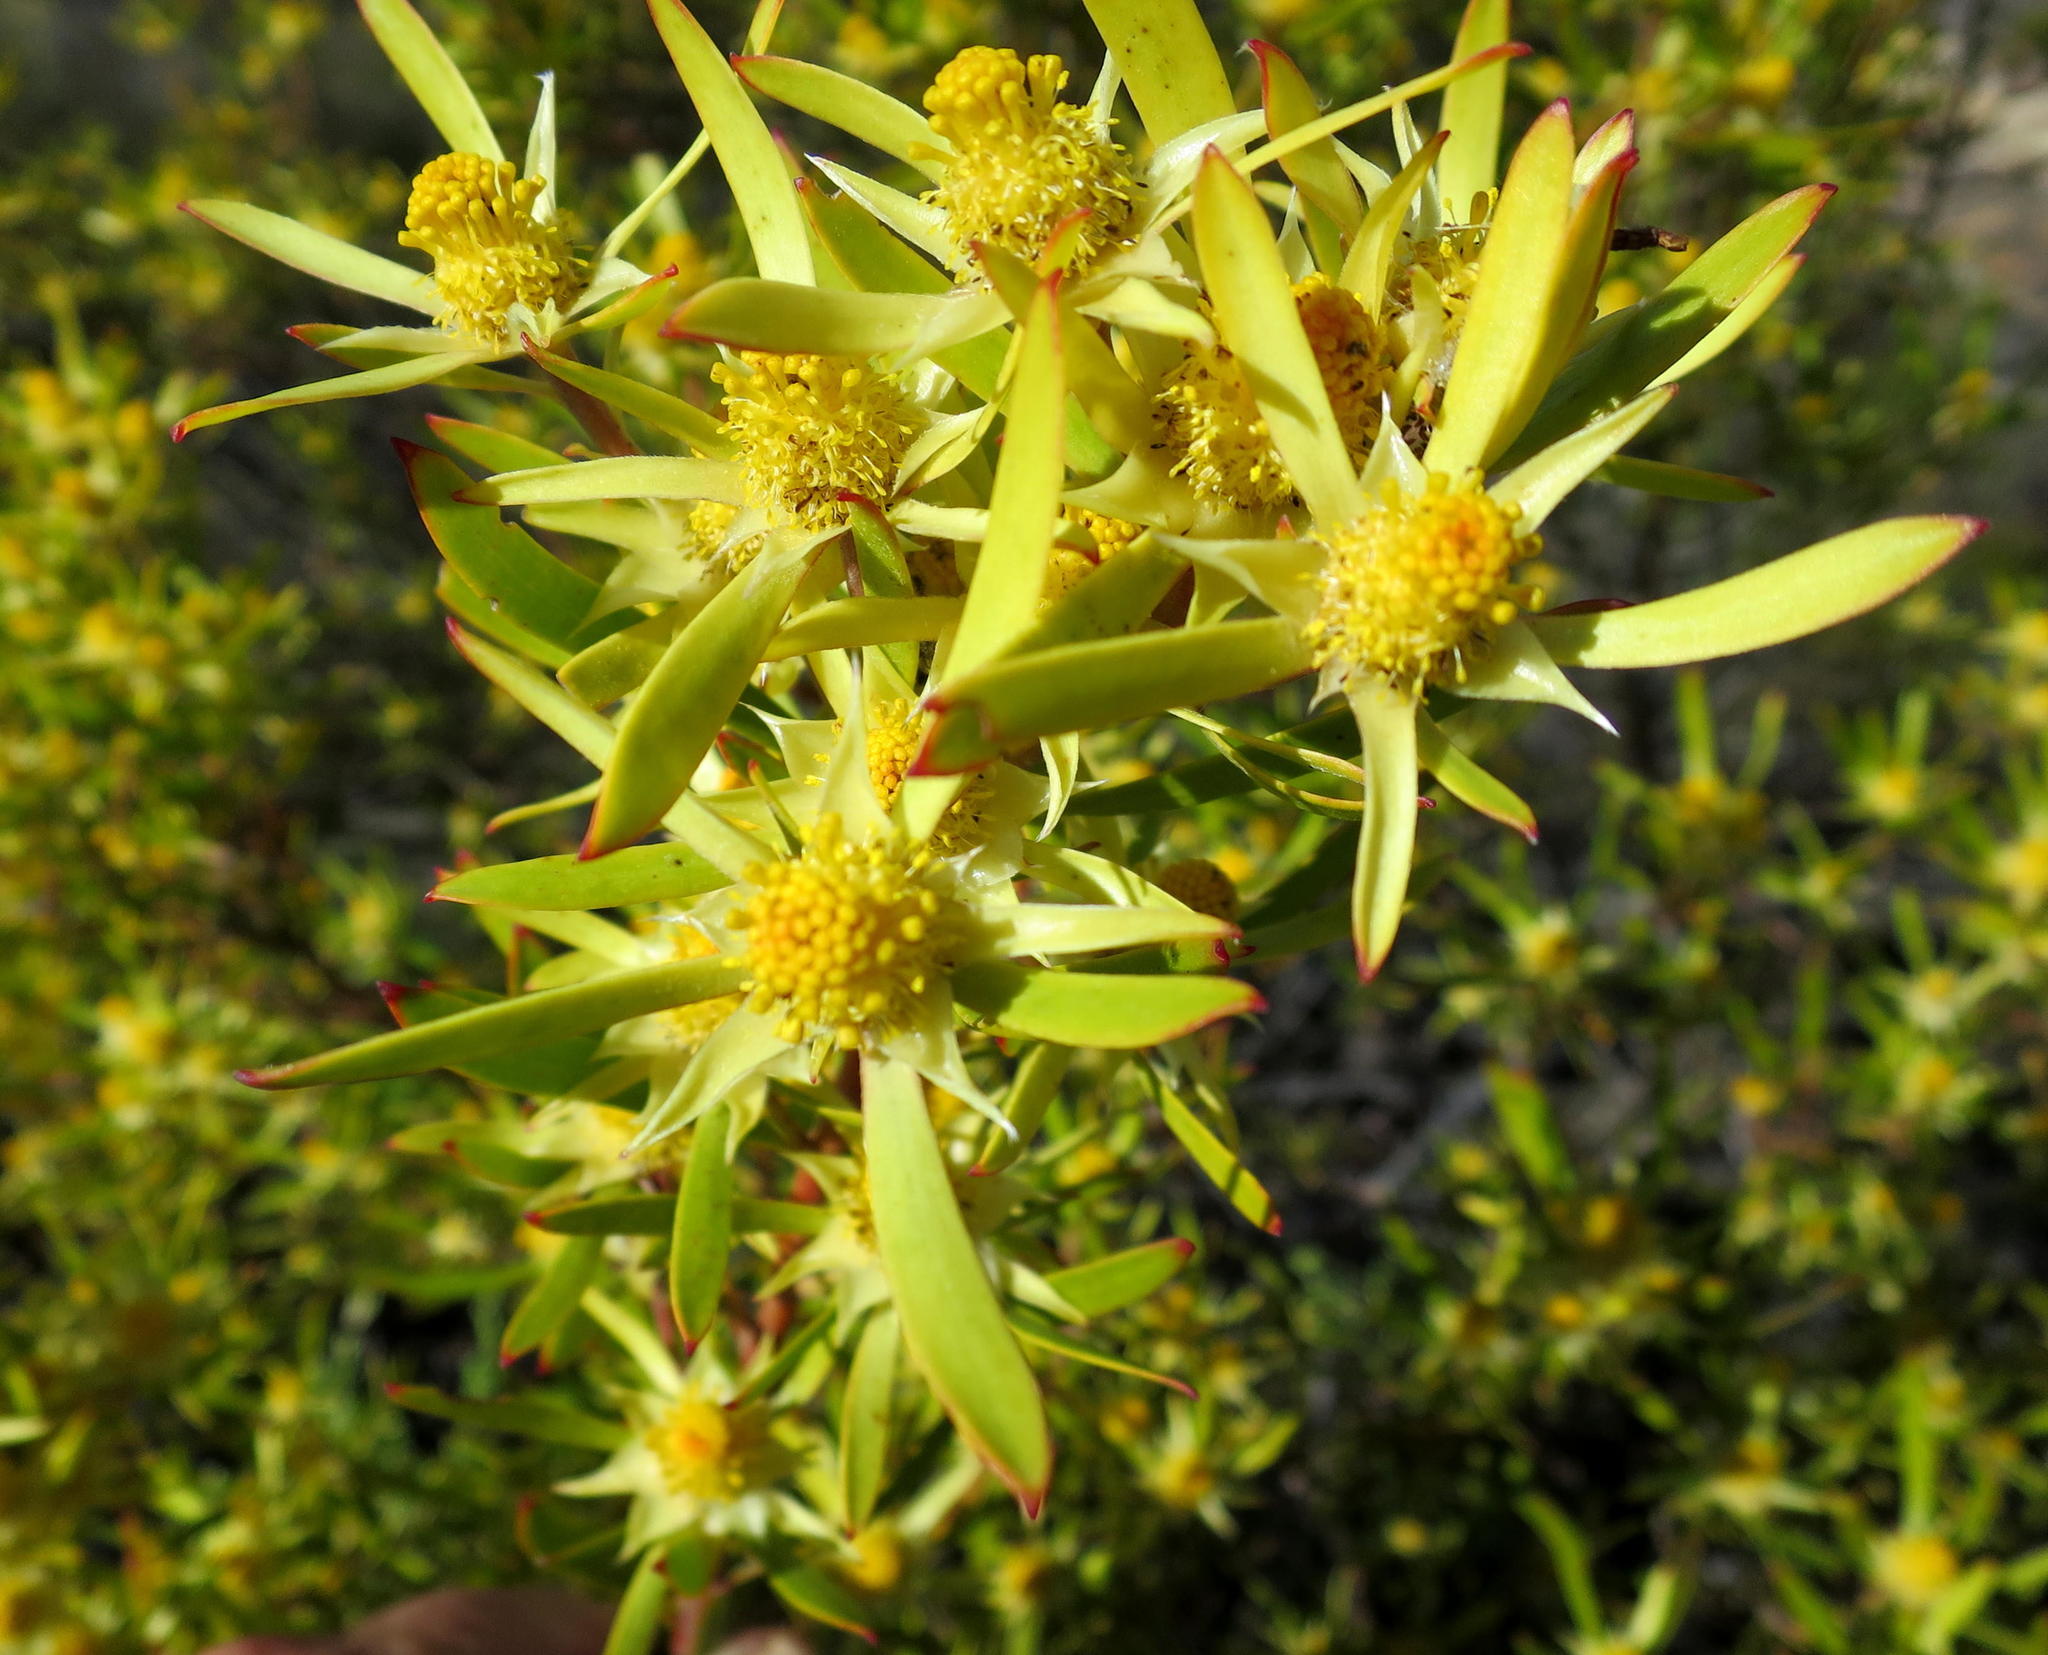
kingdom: Plantae
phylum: Tracheophyta
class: Magnoliopsida
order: Proteales
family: Proteaceae
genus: Leucadendron
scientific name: Leucadendron eucalyptifolium
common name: Gum-leaved conebush
